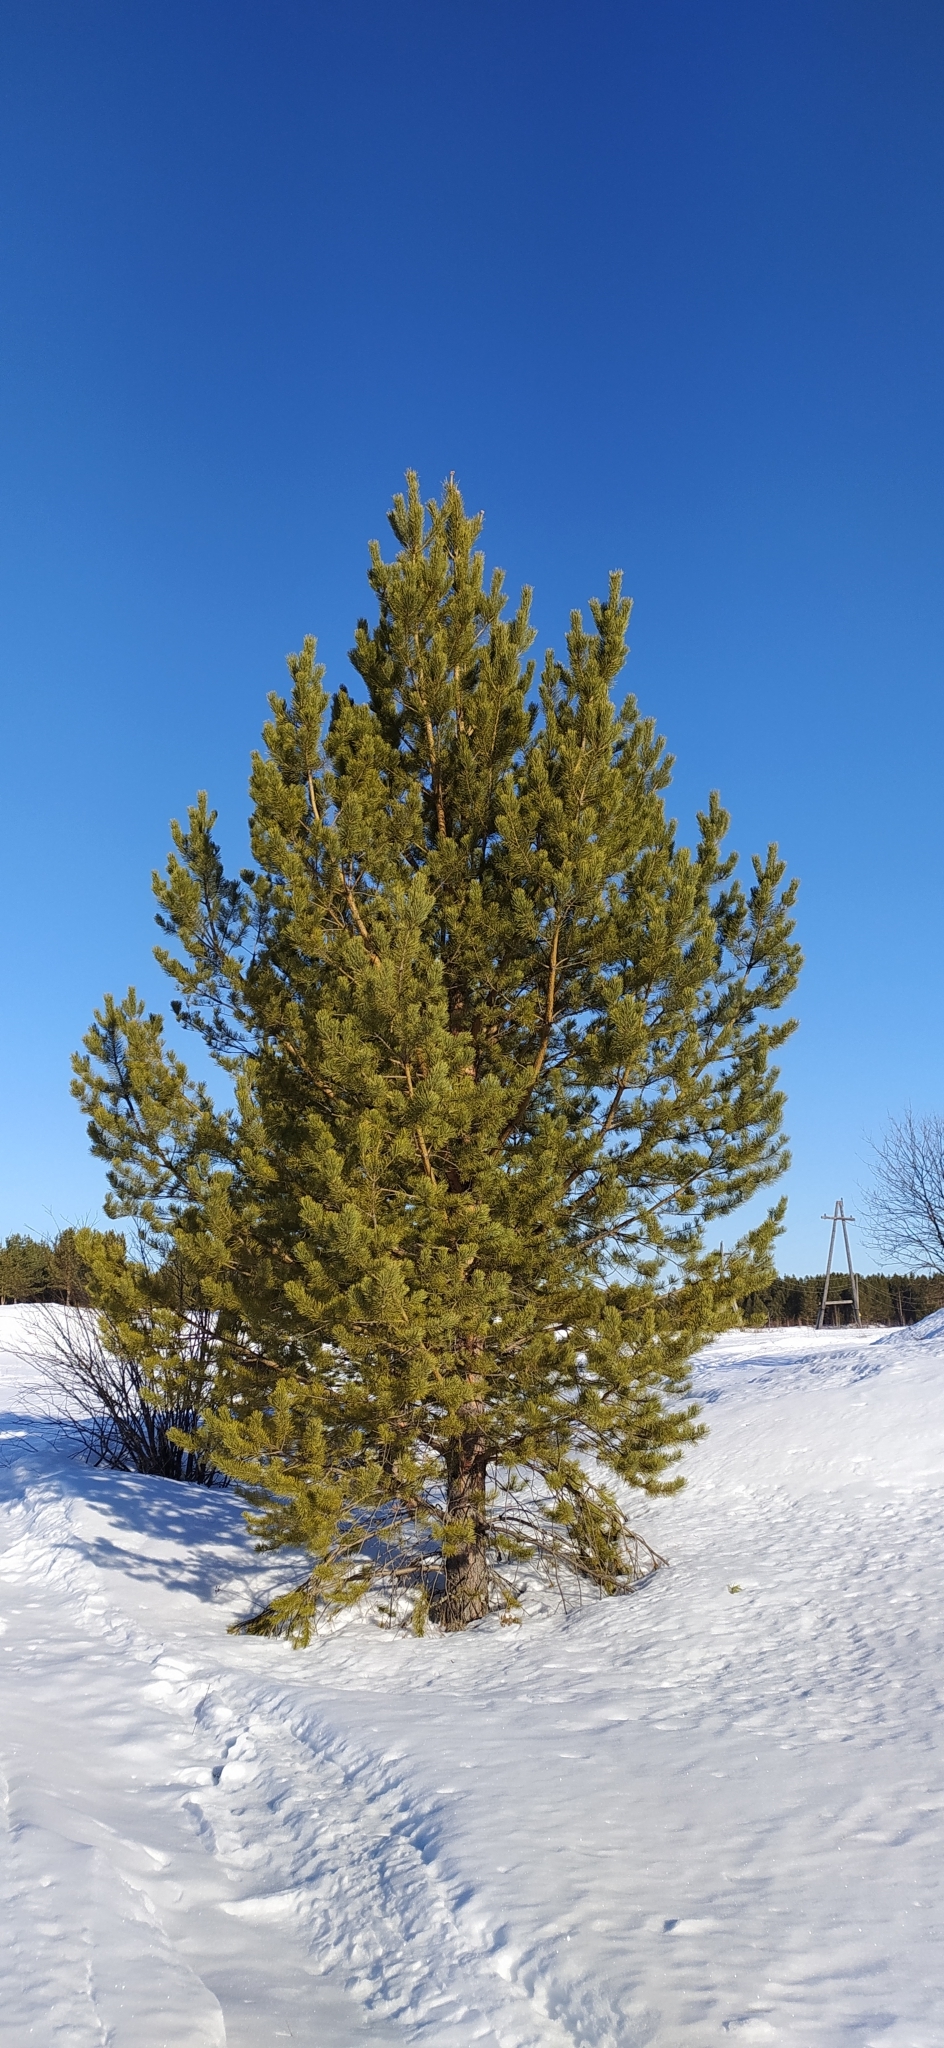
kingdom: Plantae
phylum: Tracheophyta
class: Pinopsida
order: Pinales
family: Pinaceae
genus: Pinus
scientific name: Pinus sylvestris
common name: Scots pine
